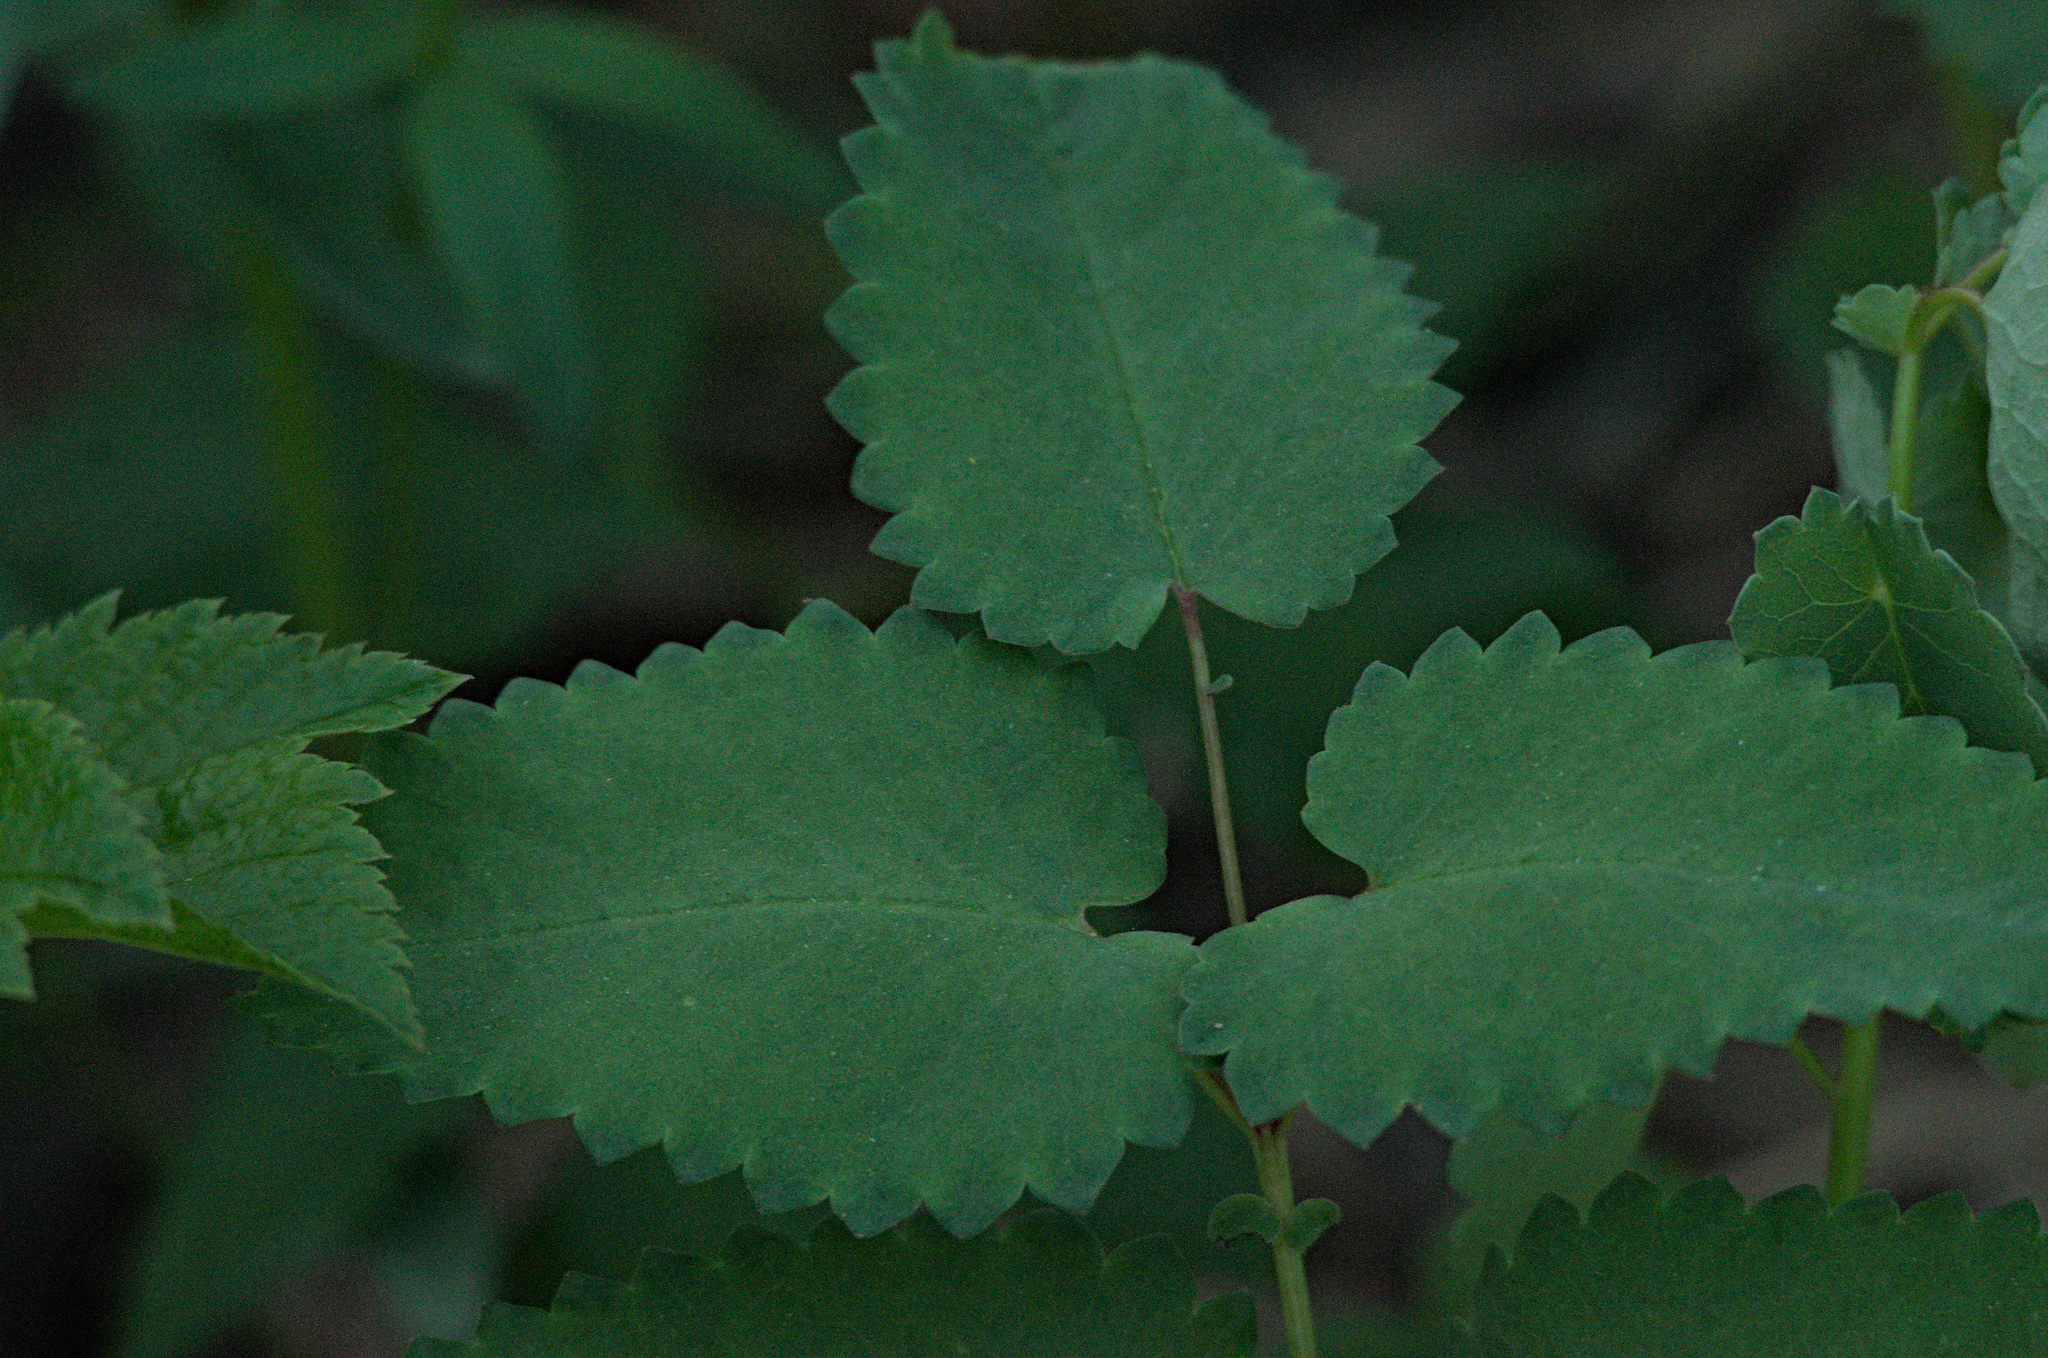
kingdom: Plantae
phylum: Tracheophyta
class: Magnoliopsida
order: Rosales
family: Rosaceae
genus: Sanguisorba
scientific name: Sanguisorba officinalis
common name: Great burnet
